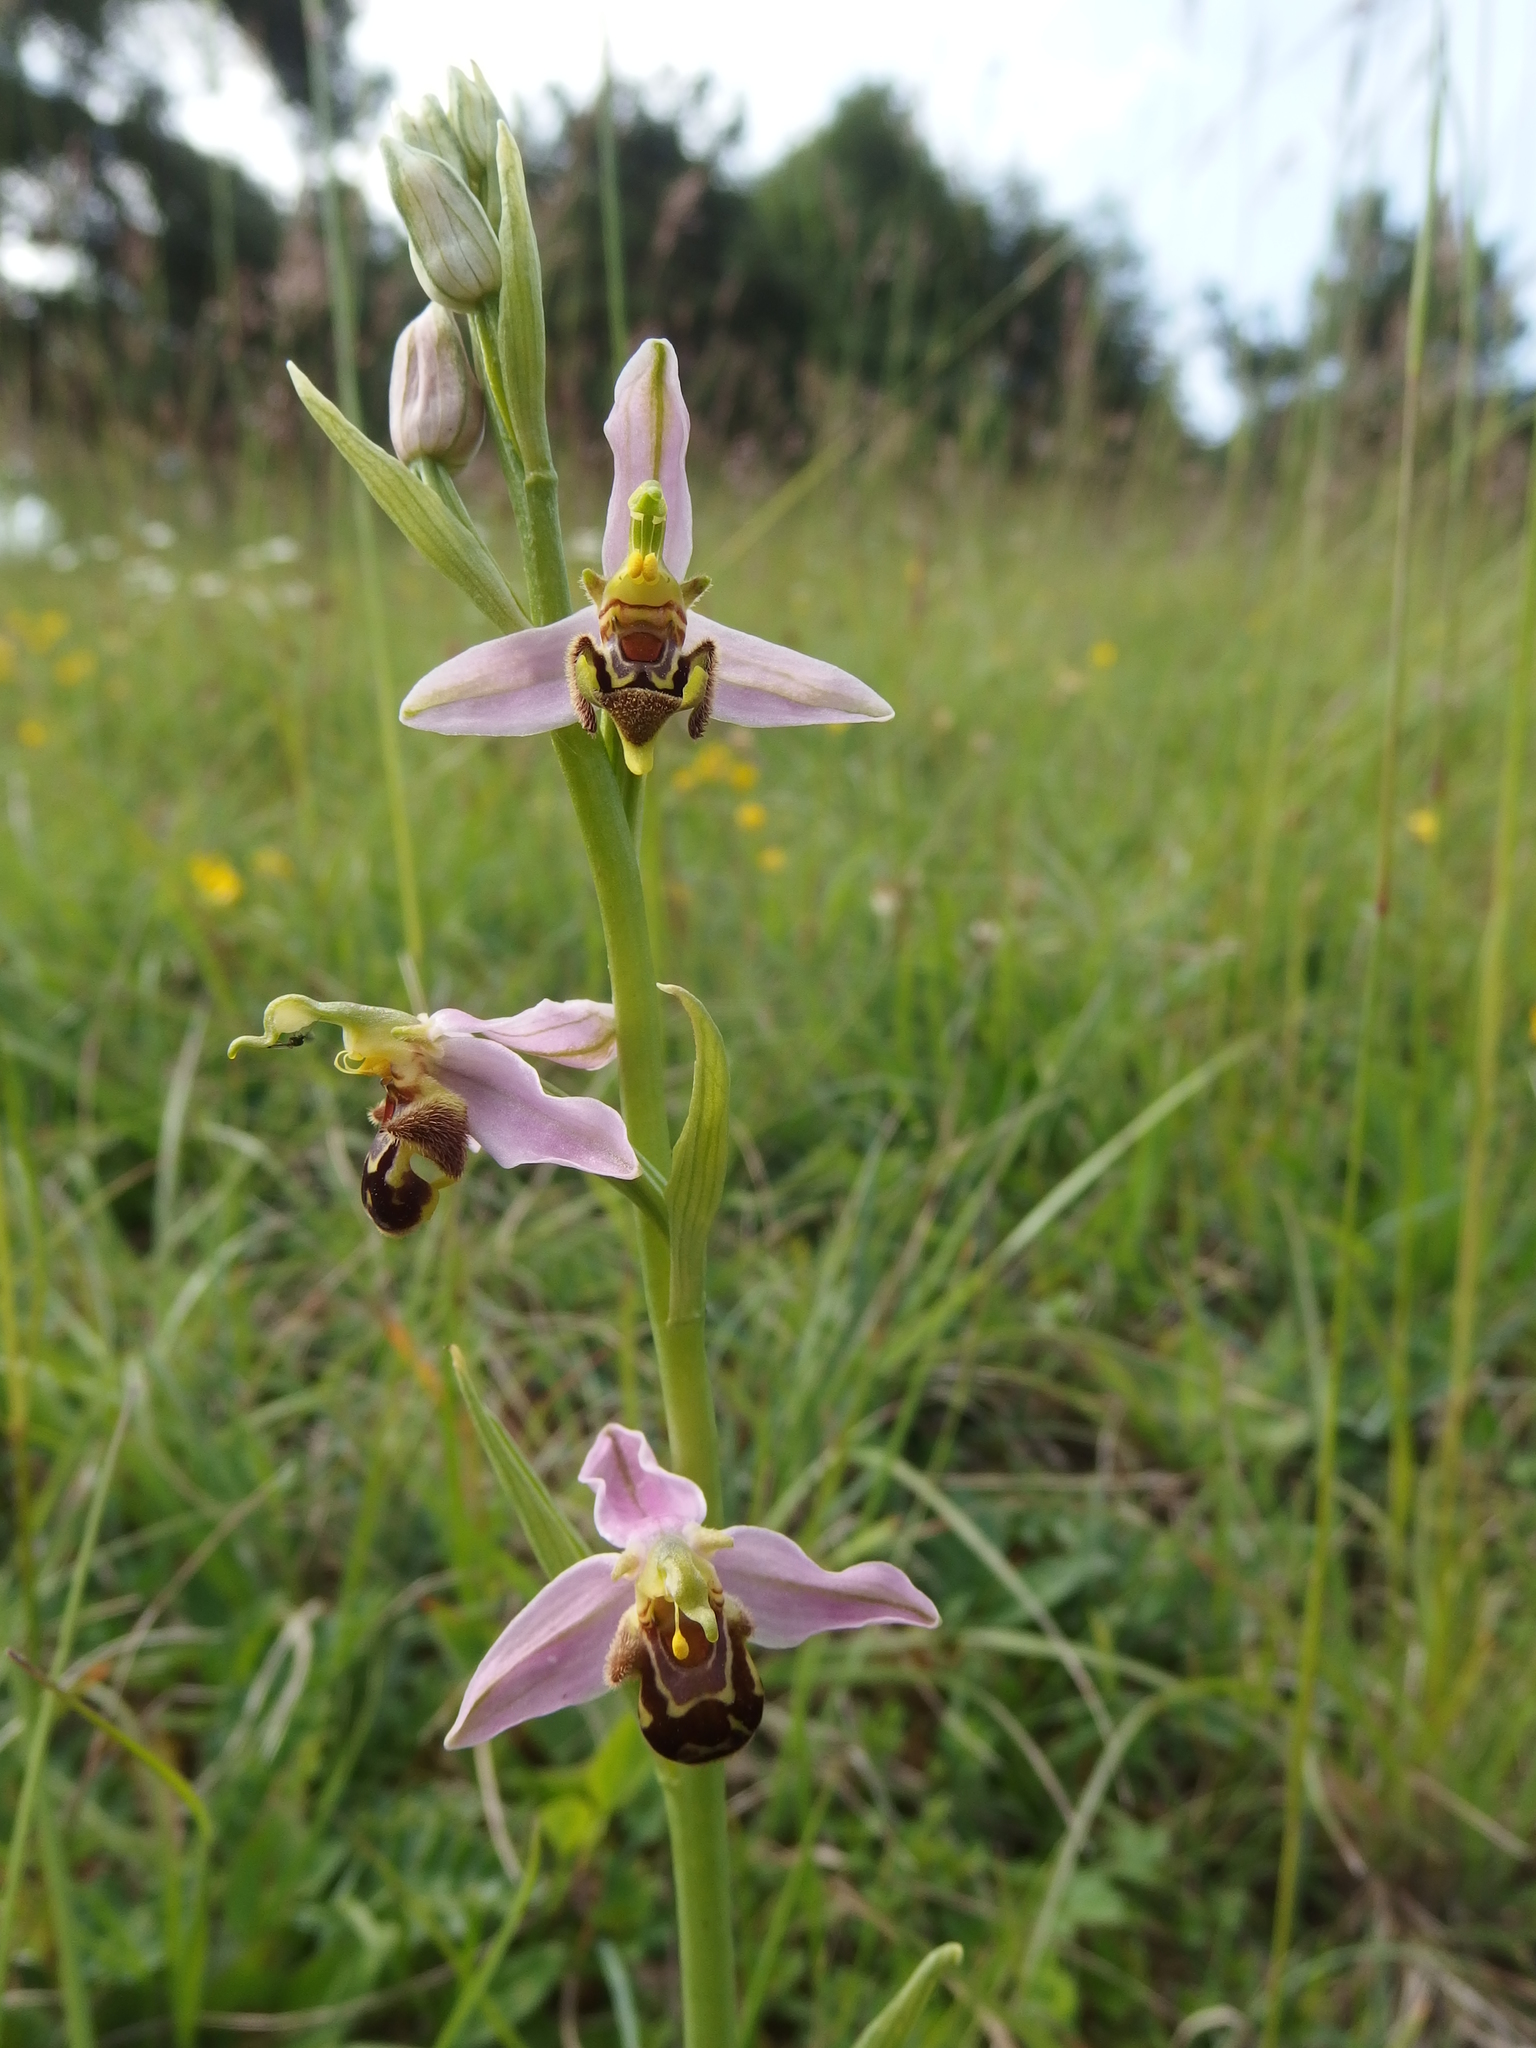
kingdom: Plantae
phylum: Tracheophyta
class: Liliopsida
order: Asparagales
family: Orchidaceae
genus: Ophrys
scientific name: Ophrys apifera
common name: Bee orchid
